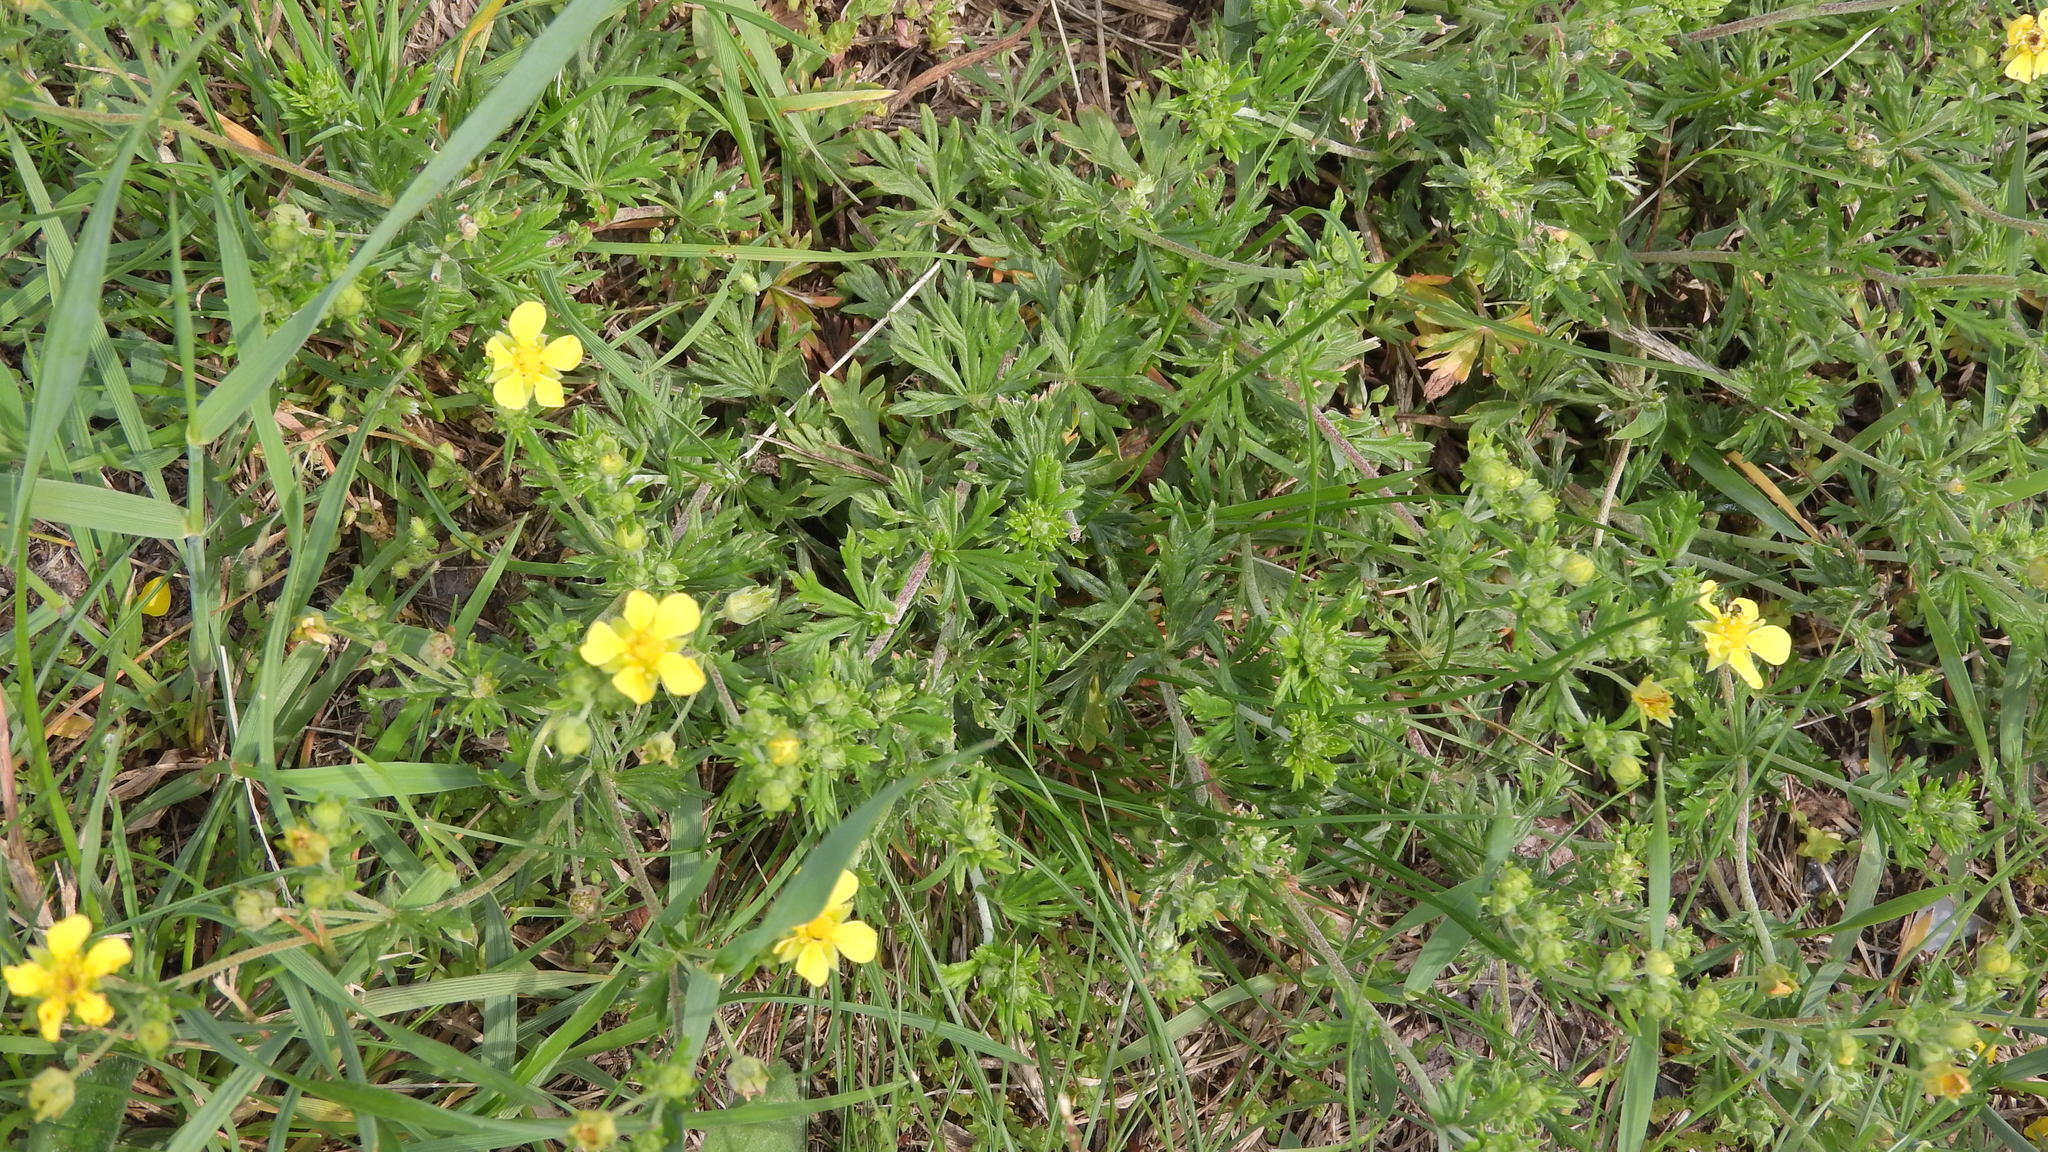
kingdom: Plantae
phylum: Tracheophyta
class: Magnoliopsida
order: Rosales
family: Rosaceae
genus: Potentilla
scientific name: Potentilla argentea
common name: Hoary cinquefoil
